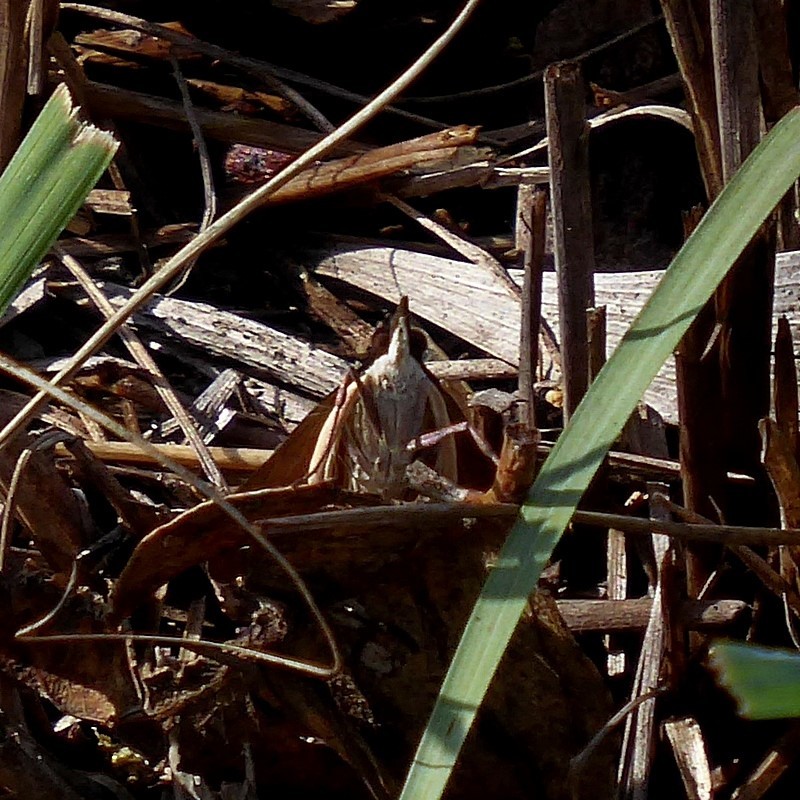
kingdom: Animalia
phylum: Arthropoda
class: Insecta
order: Lepidoptera
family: Crambidae
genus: Uresiphita
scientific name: Uresiphita ornithopteralis
